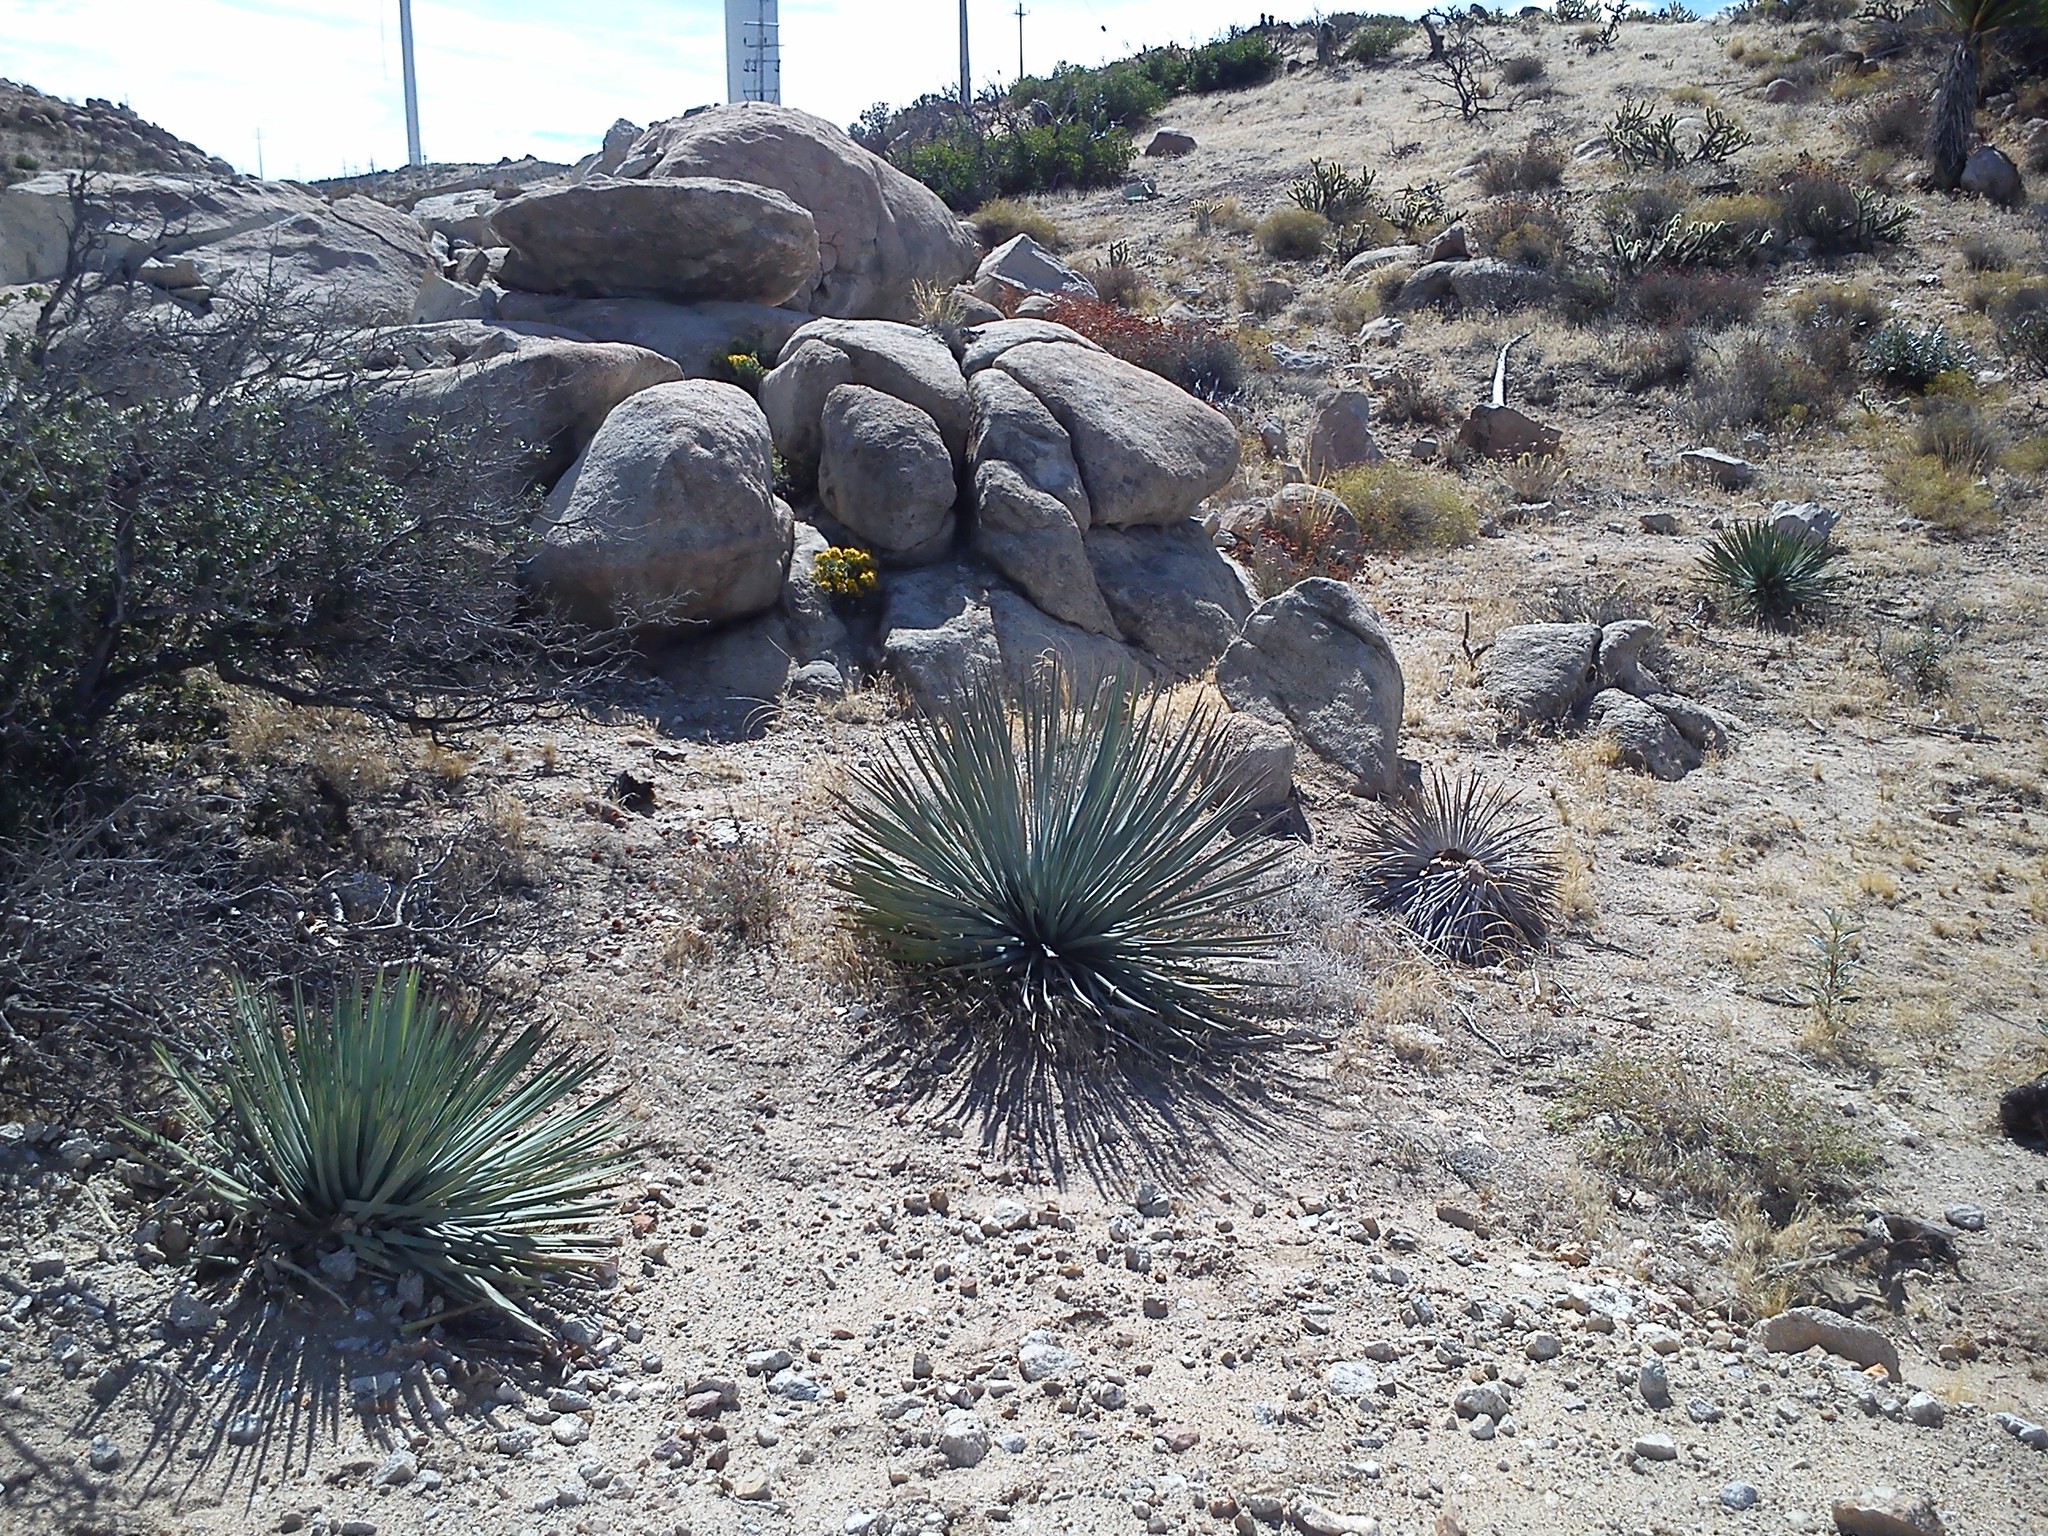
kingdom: Plantae
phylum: Tracheophyta
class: Liliopsida
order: Asparagales
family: Asparagaceae
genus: Hesperoyucca
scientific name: Hesperoyucca whipplei
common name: Our lord's-candle
